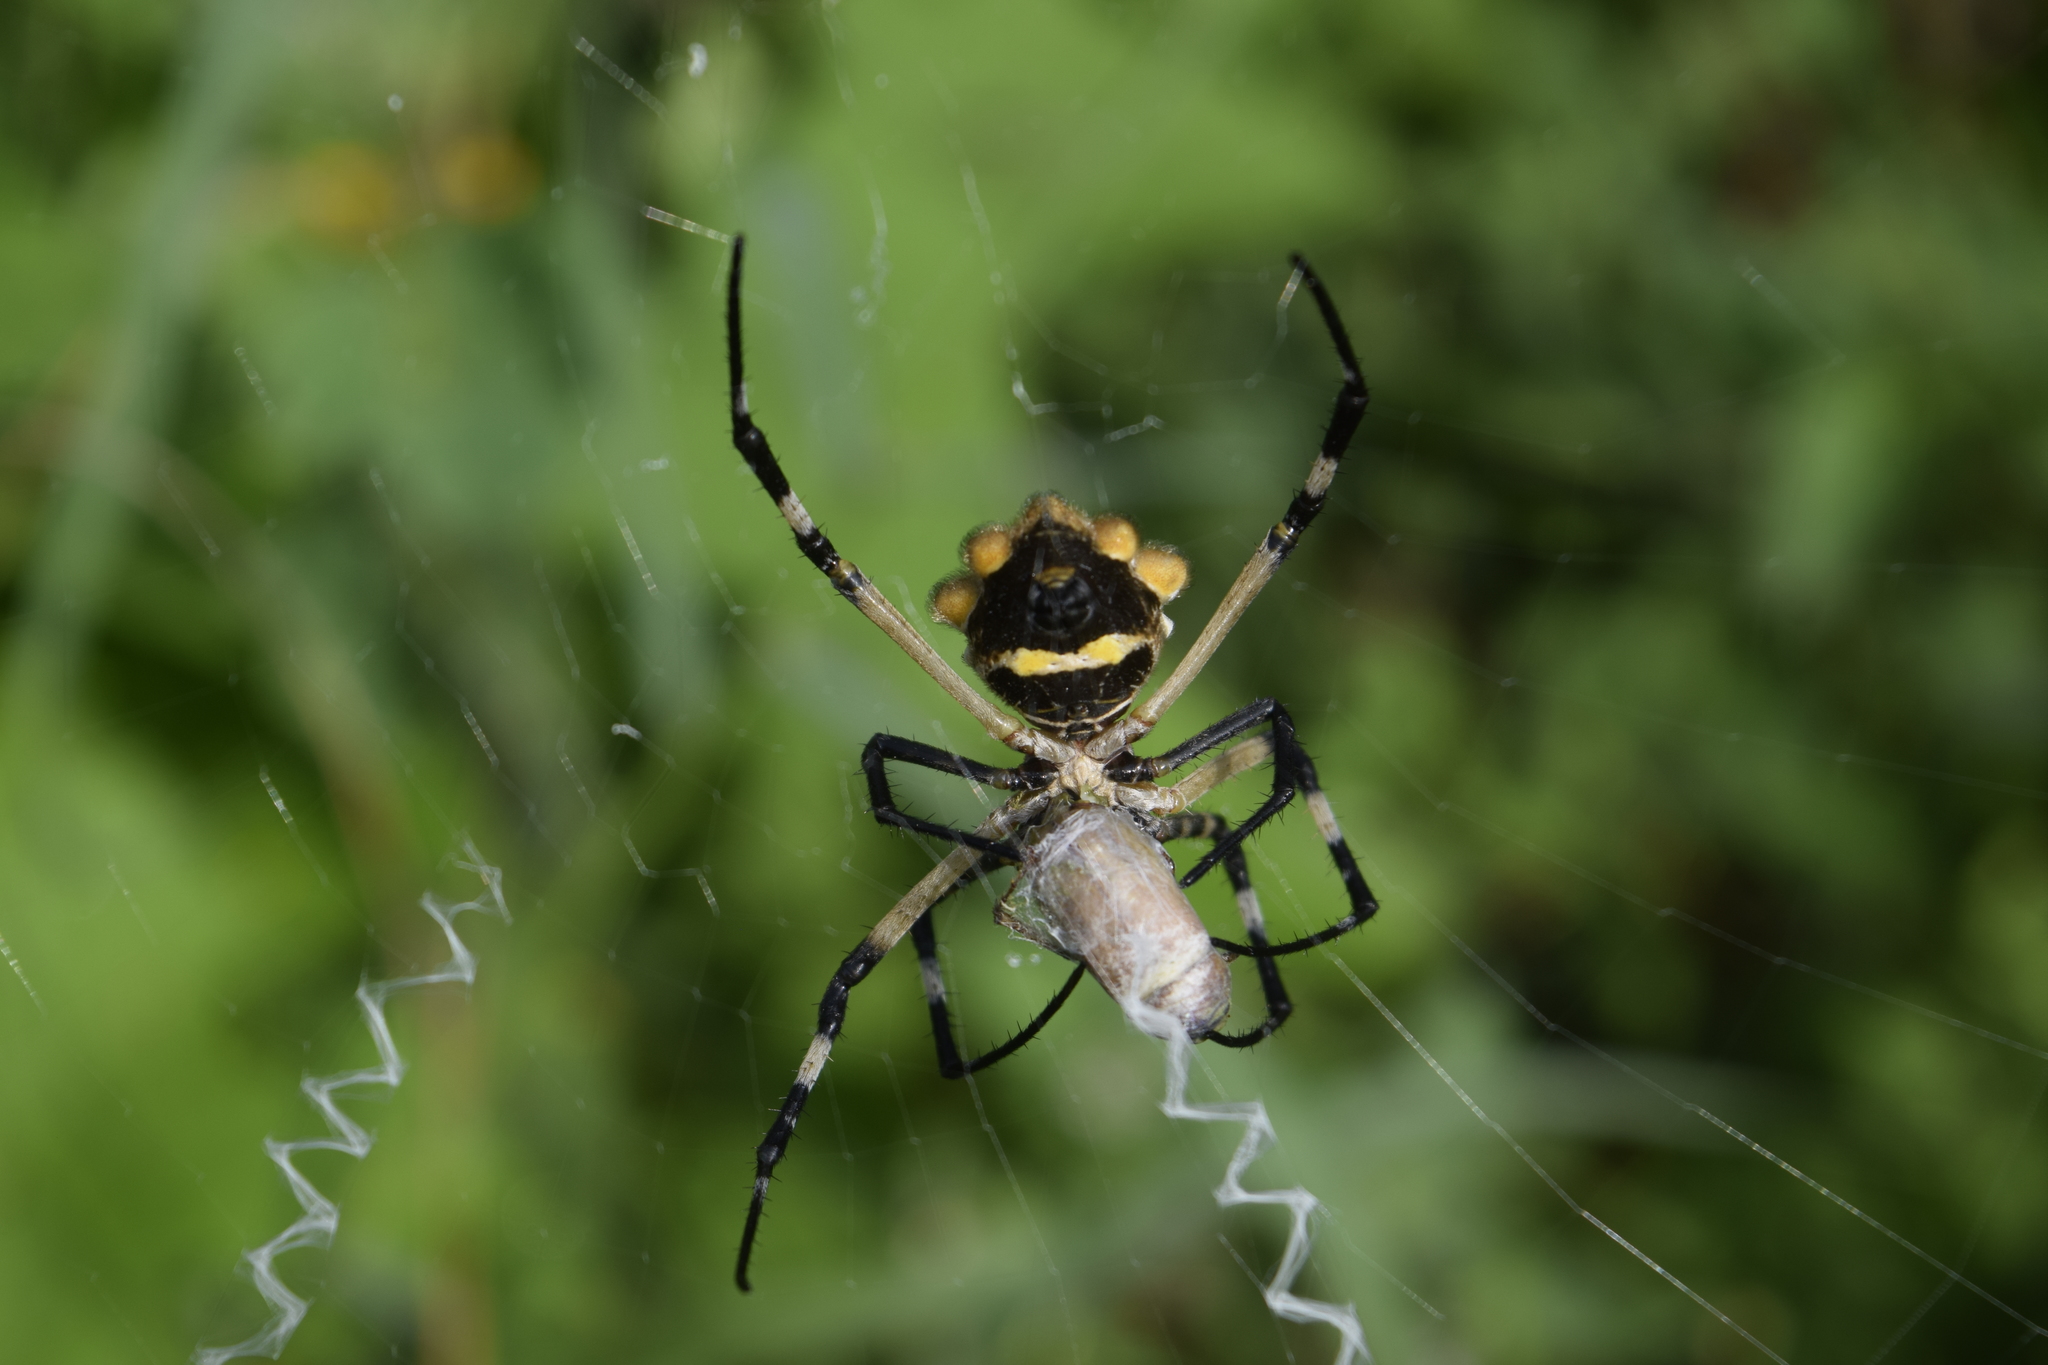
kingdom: Animalia
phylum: Arthropoda
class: Arachnida
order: Araneae
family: Araneidae
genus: Argiope
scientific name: Argiope argentata
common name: Orb weavers
